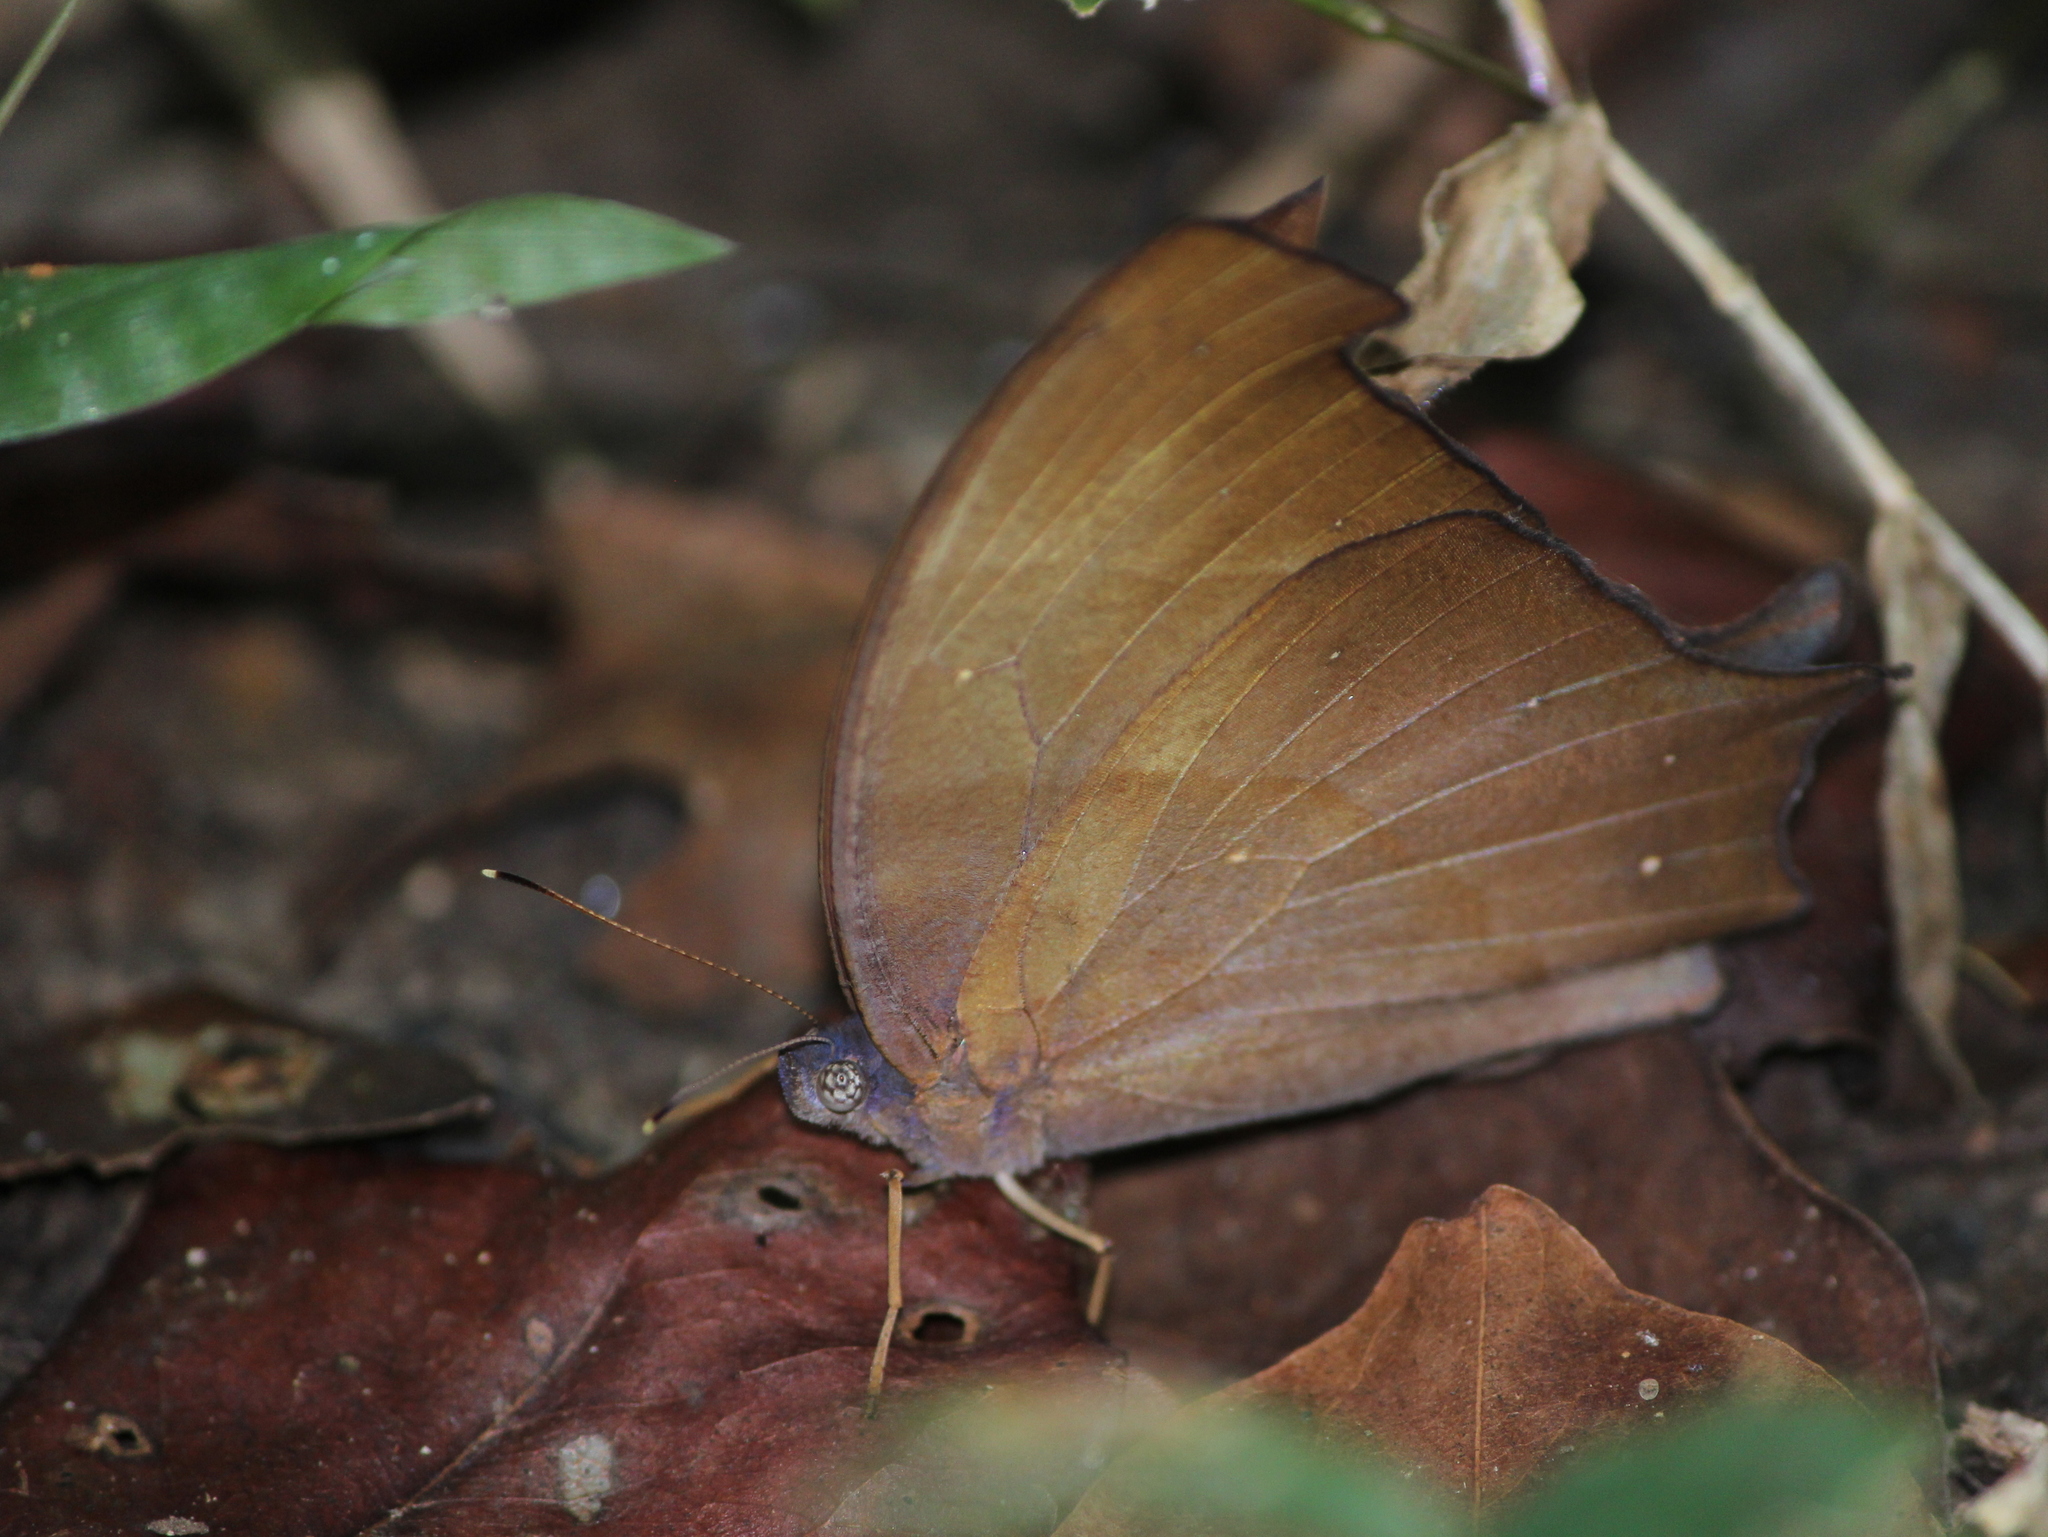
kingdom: Animalia
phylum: Arthropoda
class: Insecta
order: Lepidoptera
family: Nymphalidae
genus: Melanitis
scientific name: Melanitis zitenius
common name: Great evening brown
